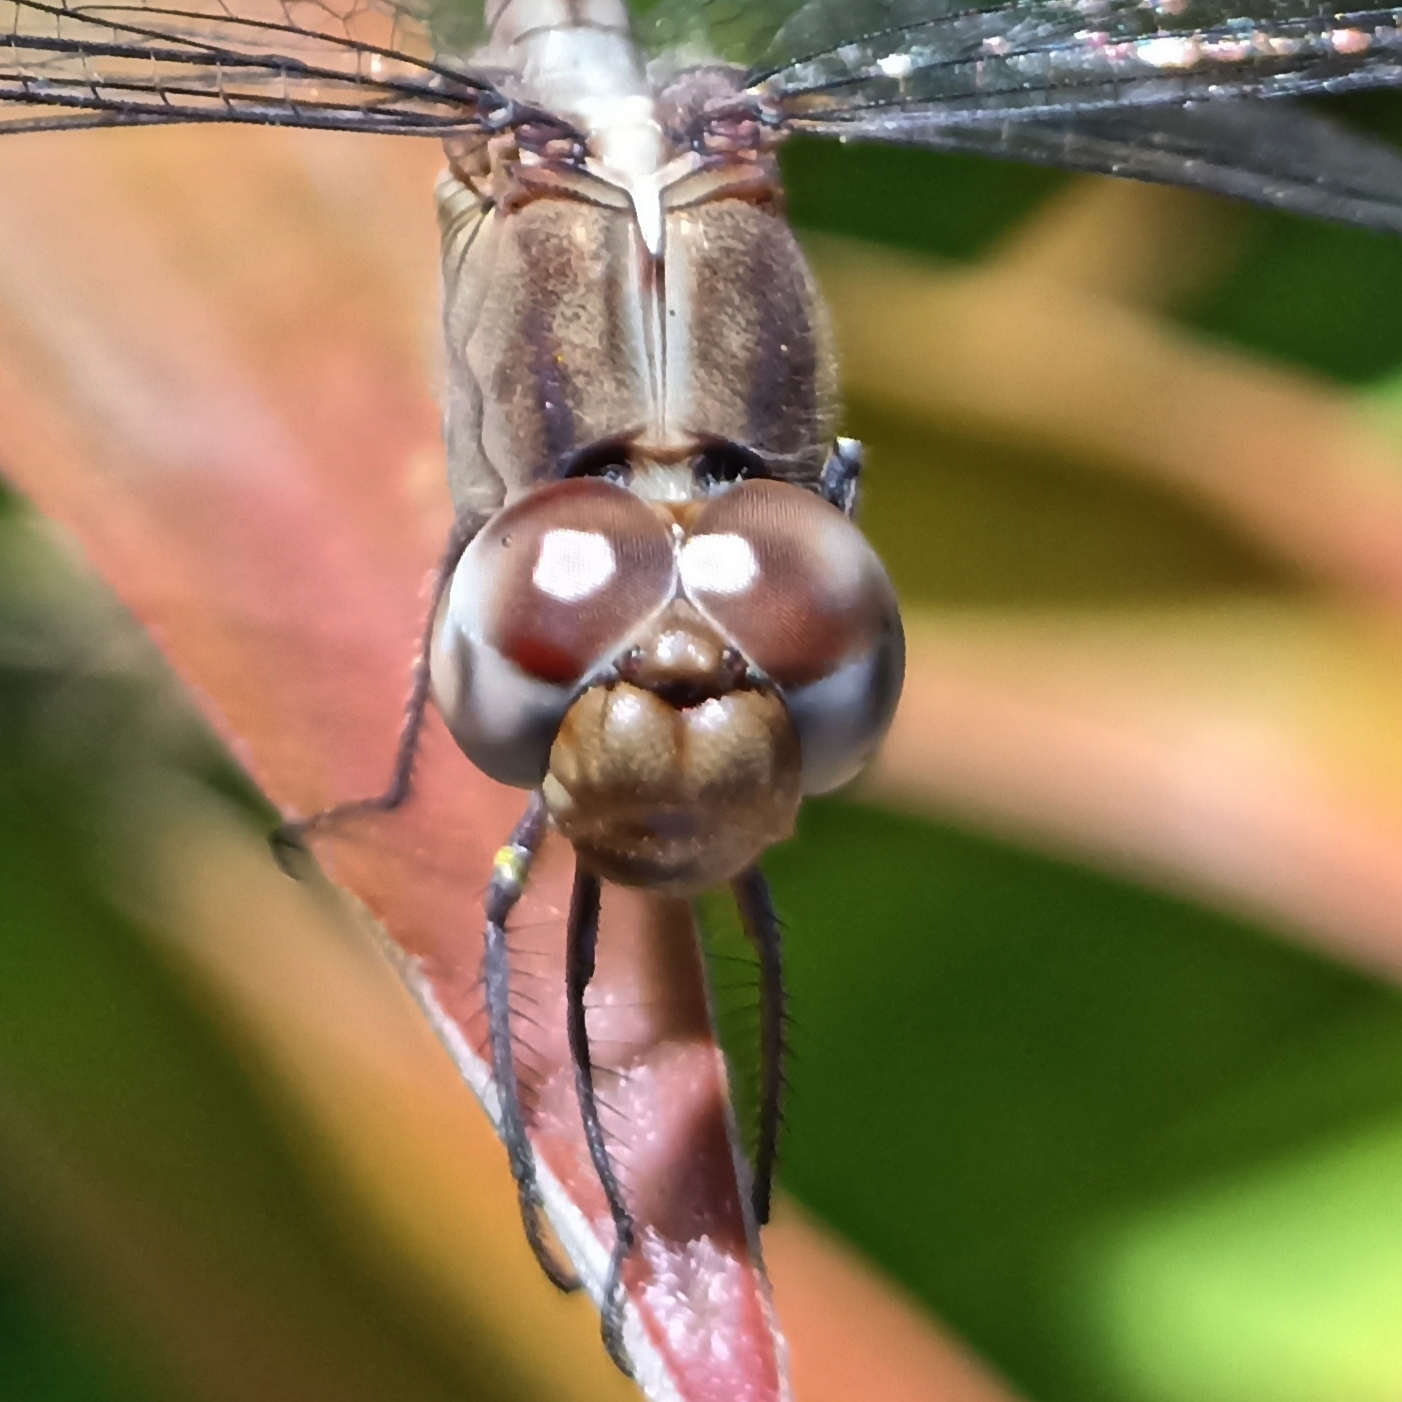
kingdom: Animalia
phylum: Arthropoda
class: Insecta
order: Odonata
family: Libellulidae
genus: Erythrodiplax
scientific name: Erythrodiplax funerea
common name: Black-winged dragonlet
